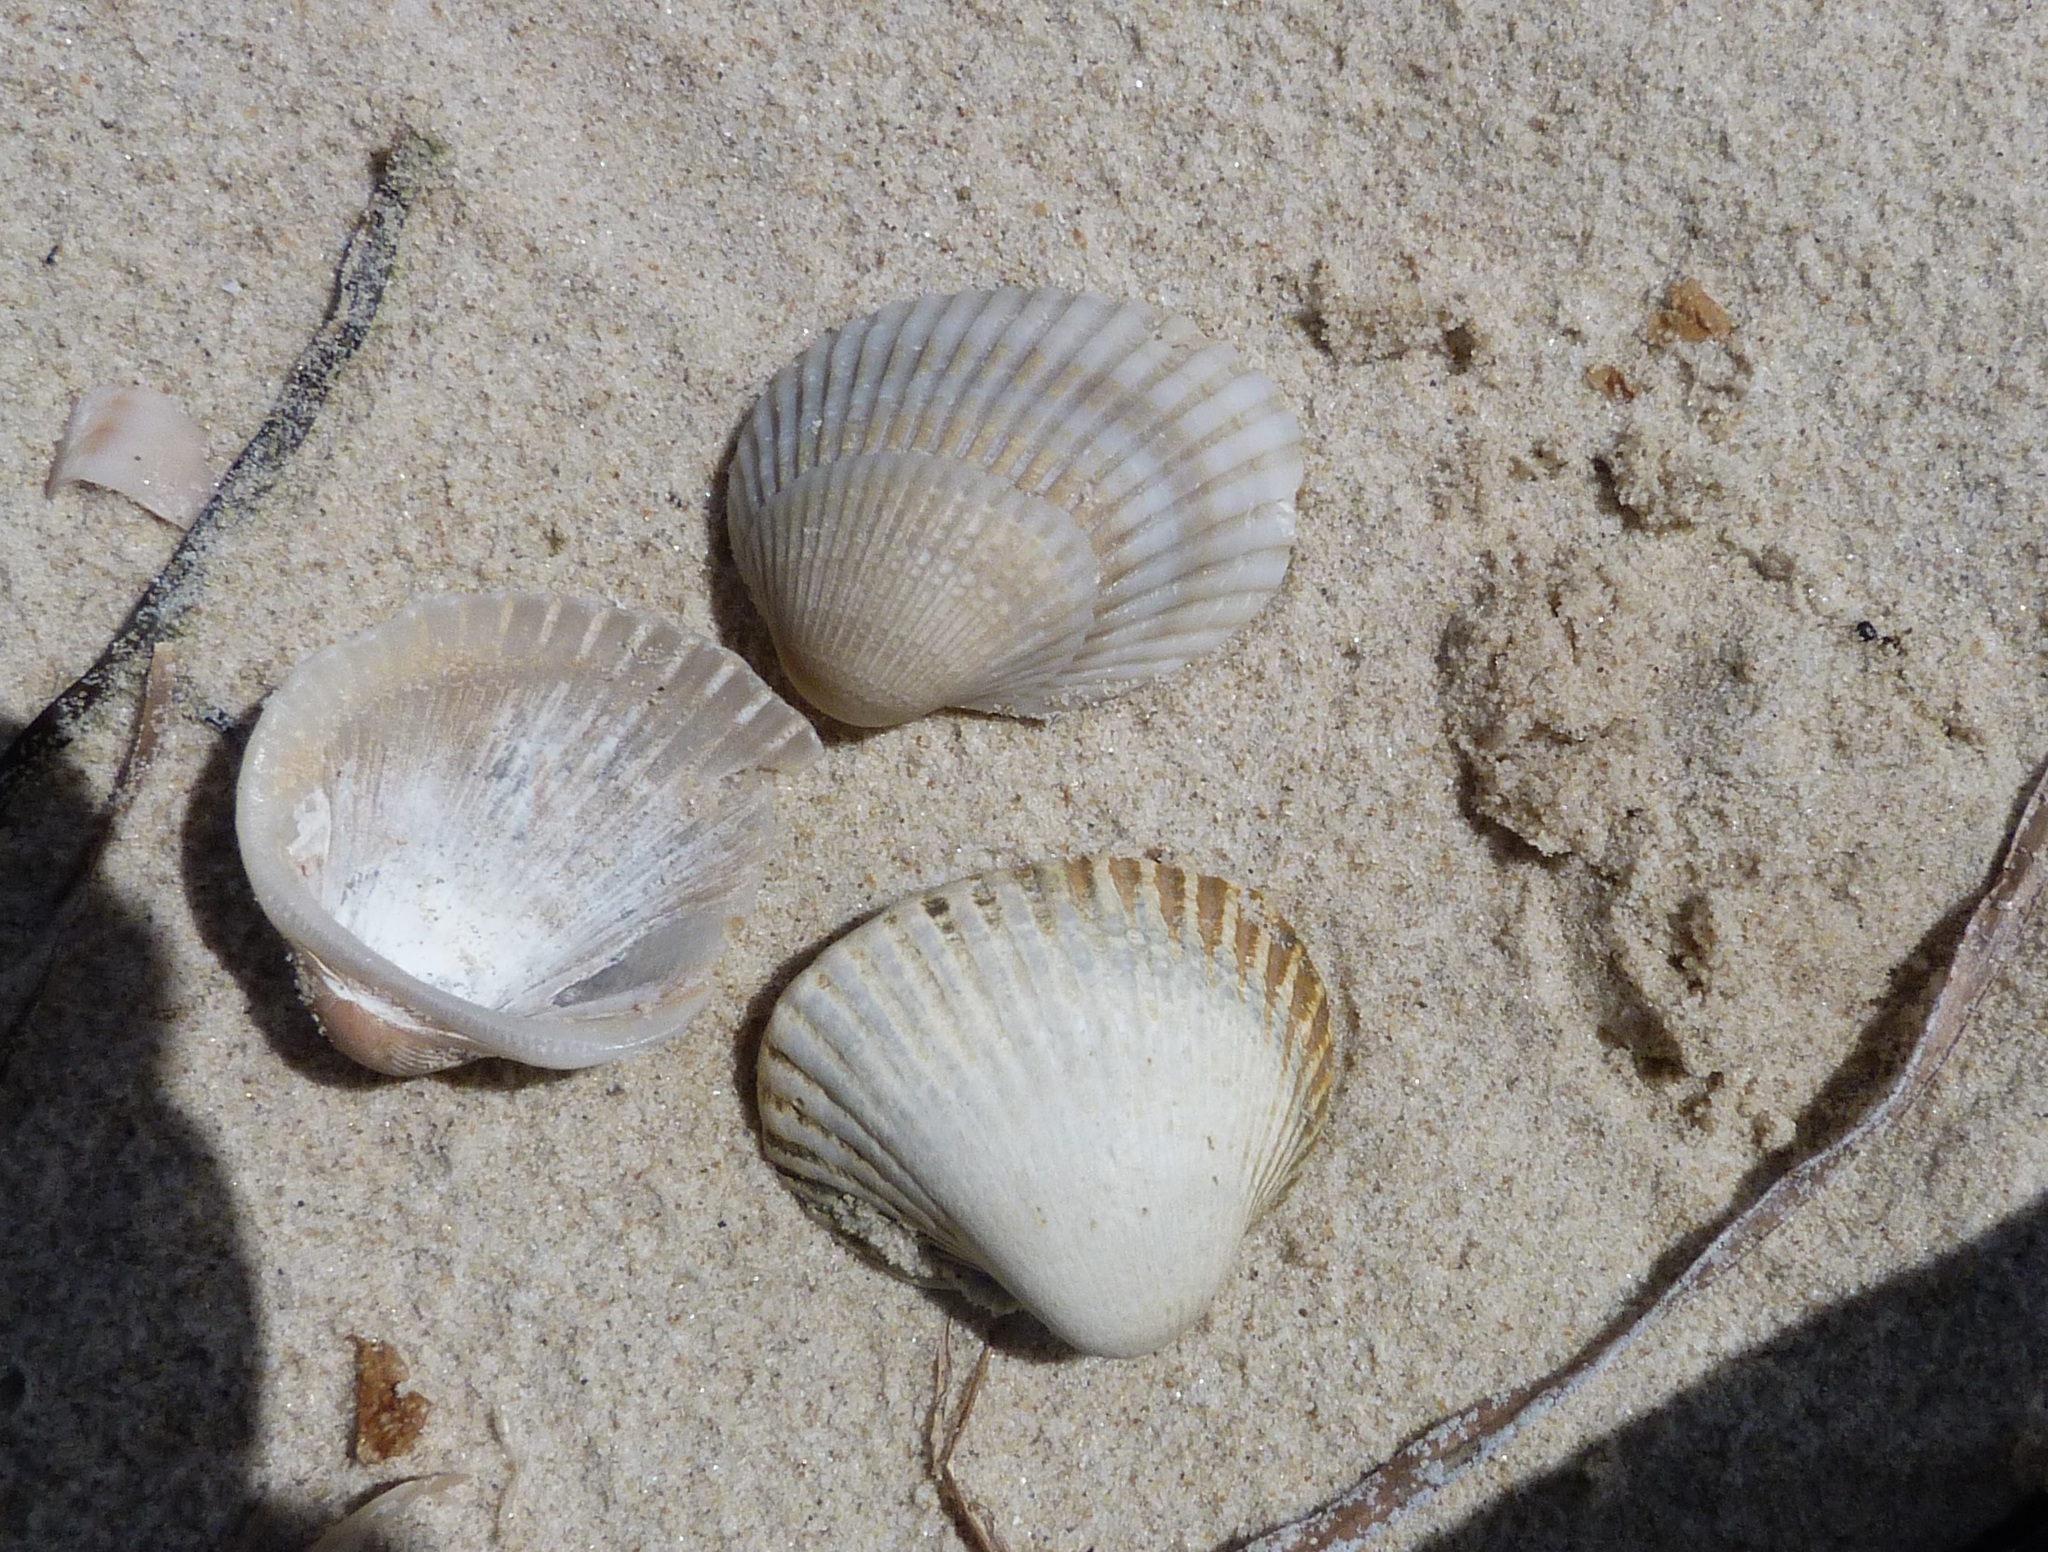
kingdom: Animalia
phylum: Mollusca
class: Bivalvia
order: Arcida
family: Arcidae
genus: Anadara
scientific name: Anadara trapezia
